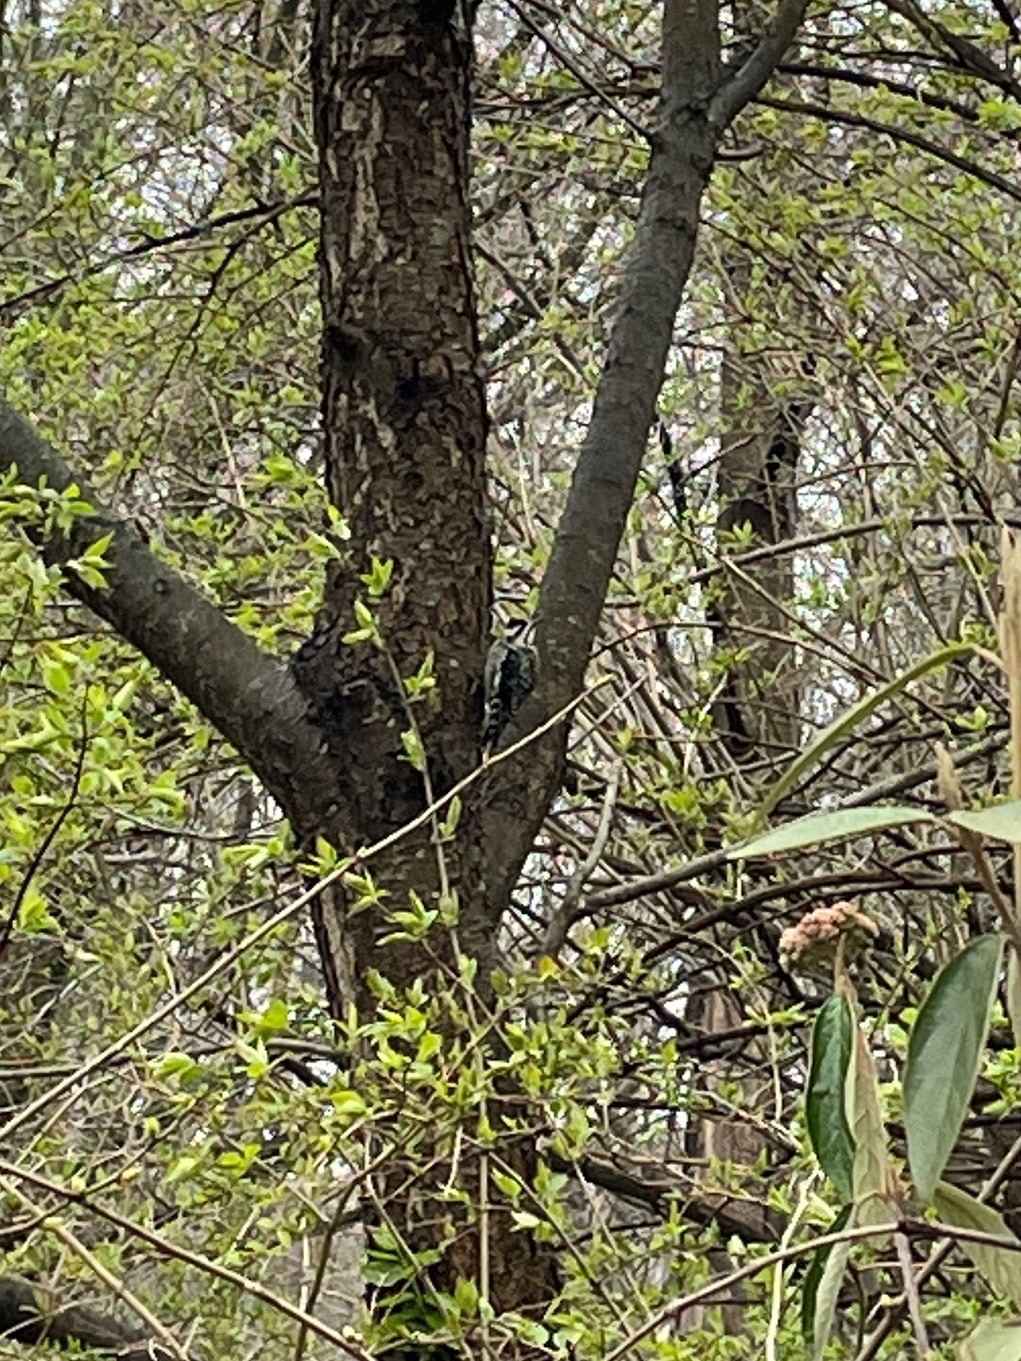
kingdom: Animalia
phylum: Chordata
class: Aves
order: Piciformes
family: Picidae
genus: Sphyrapicus
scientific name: Sphyrapicus varius
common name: Yellow-bellied sapsucker
